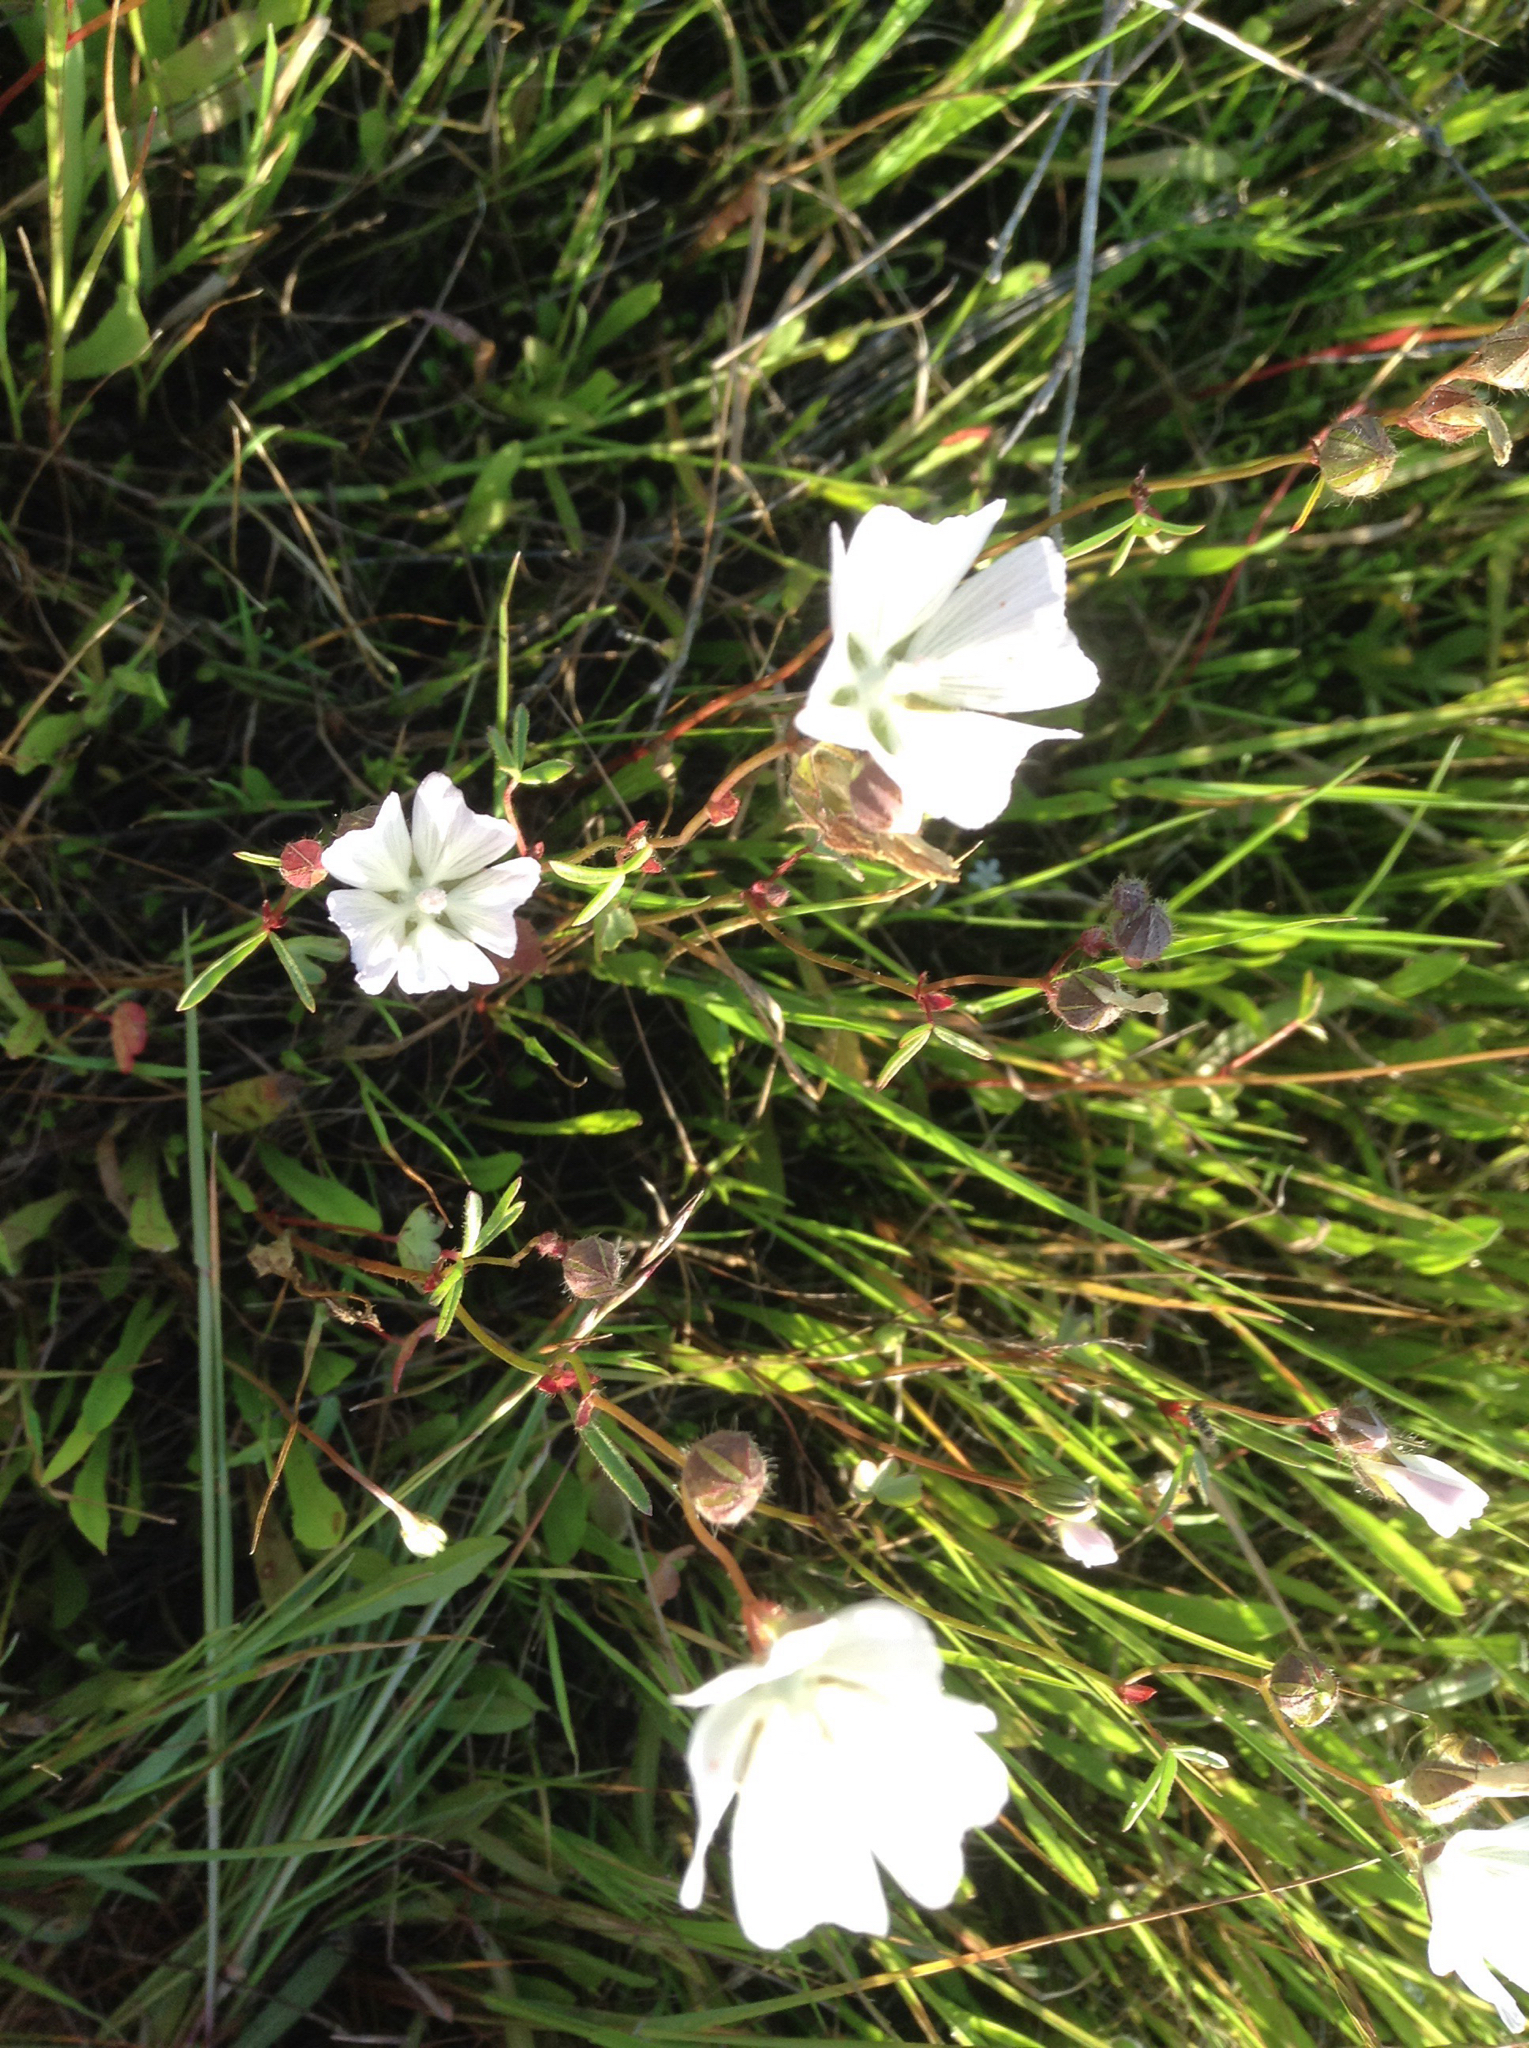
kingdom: Plantae
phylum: Tracheophyta
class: Magnoliopsida
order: Malvales
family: Malvaceae
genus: Sidalcea
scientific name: Sidalcea calycosa
